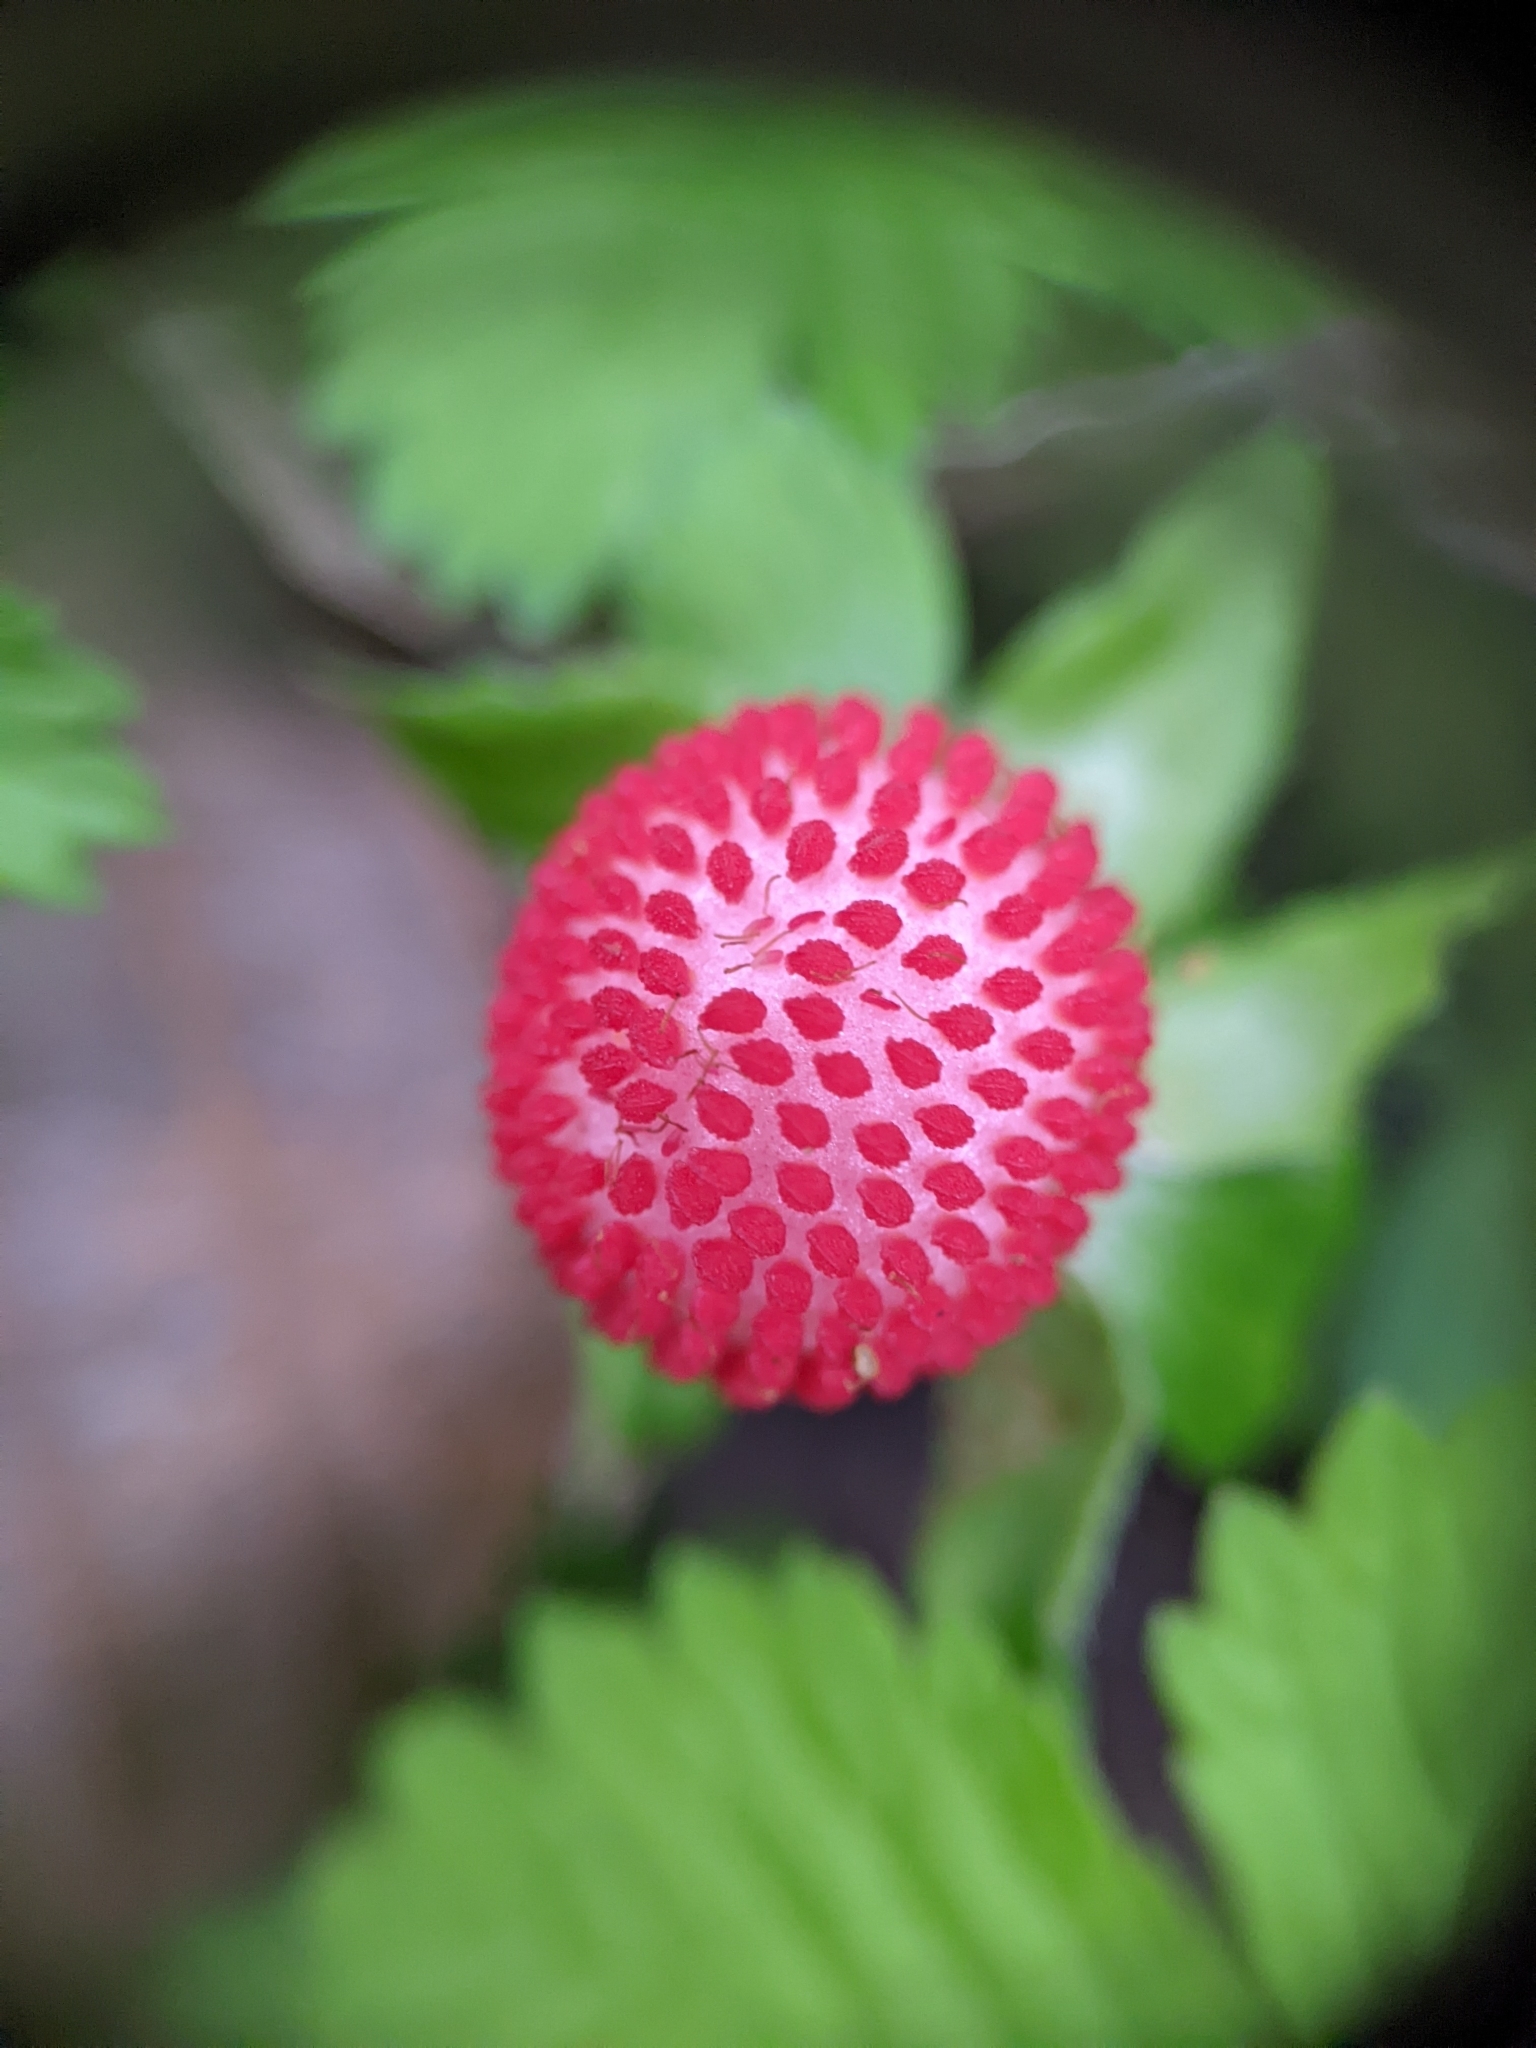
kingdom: Plantae
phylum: Tracheophyta
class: Magnoliopsida
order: Rosales
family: Rosaceae
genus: Potentilla
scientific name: Potentilla indica
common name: Yellow-flowered strawberry
